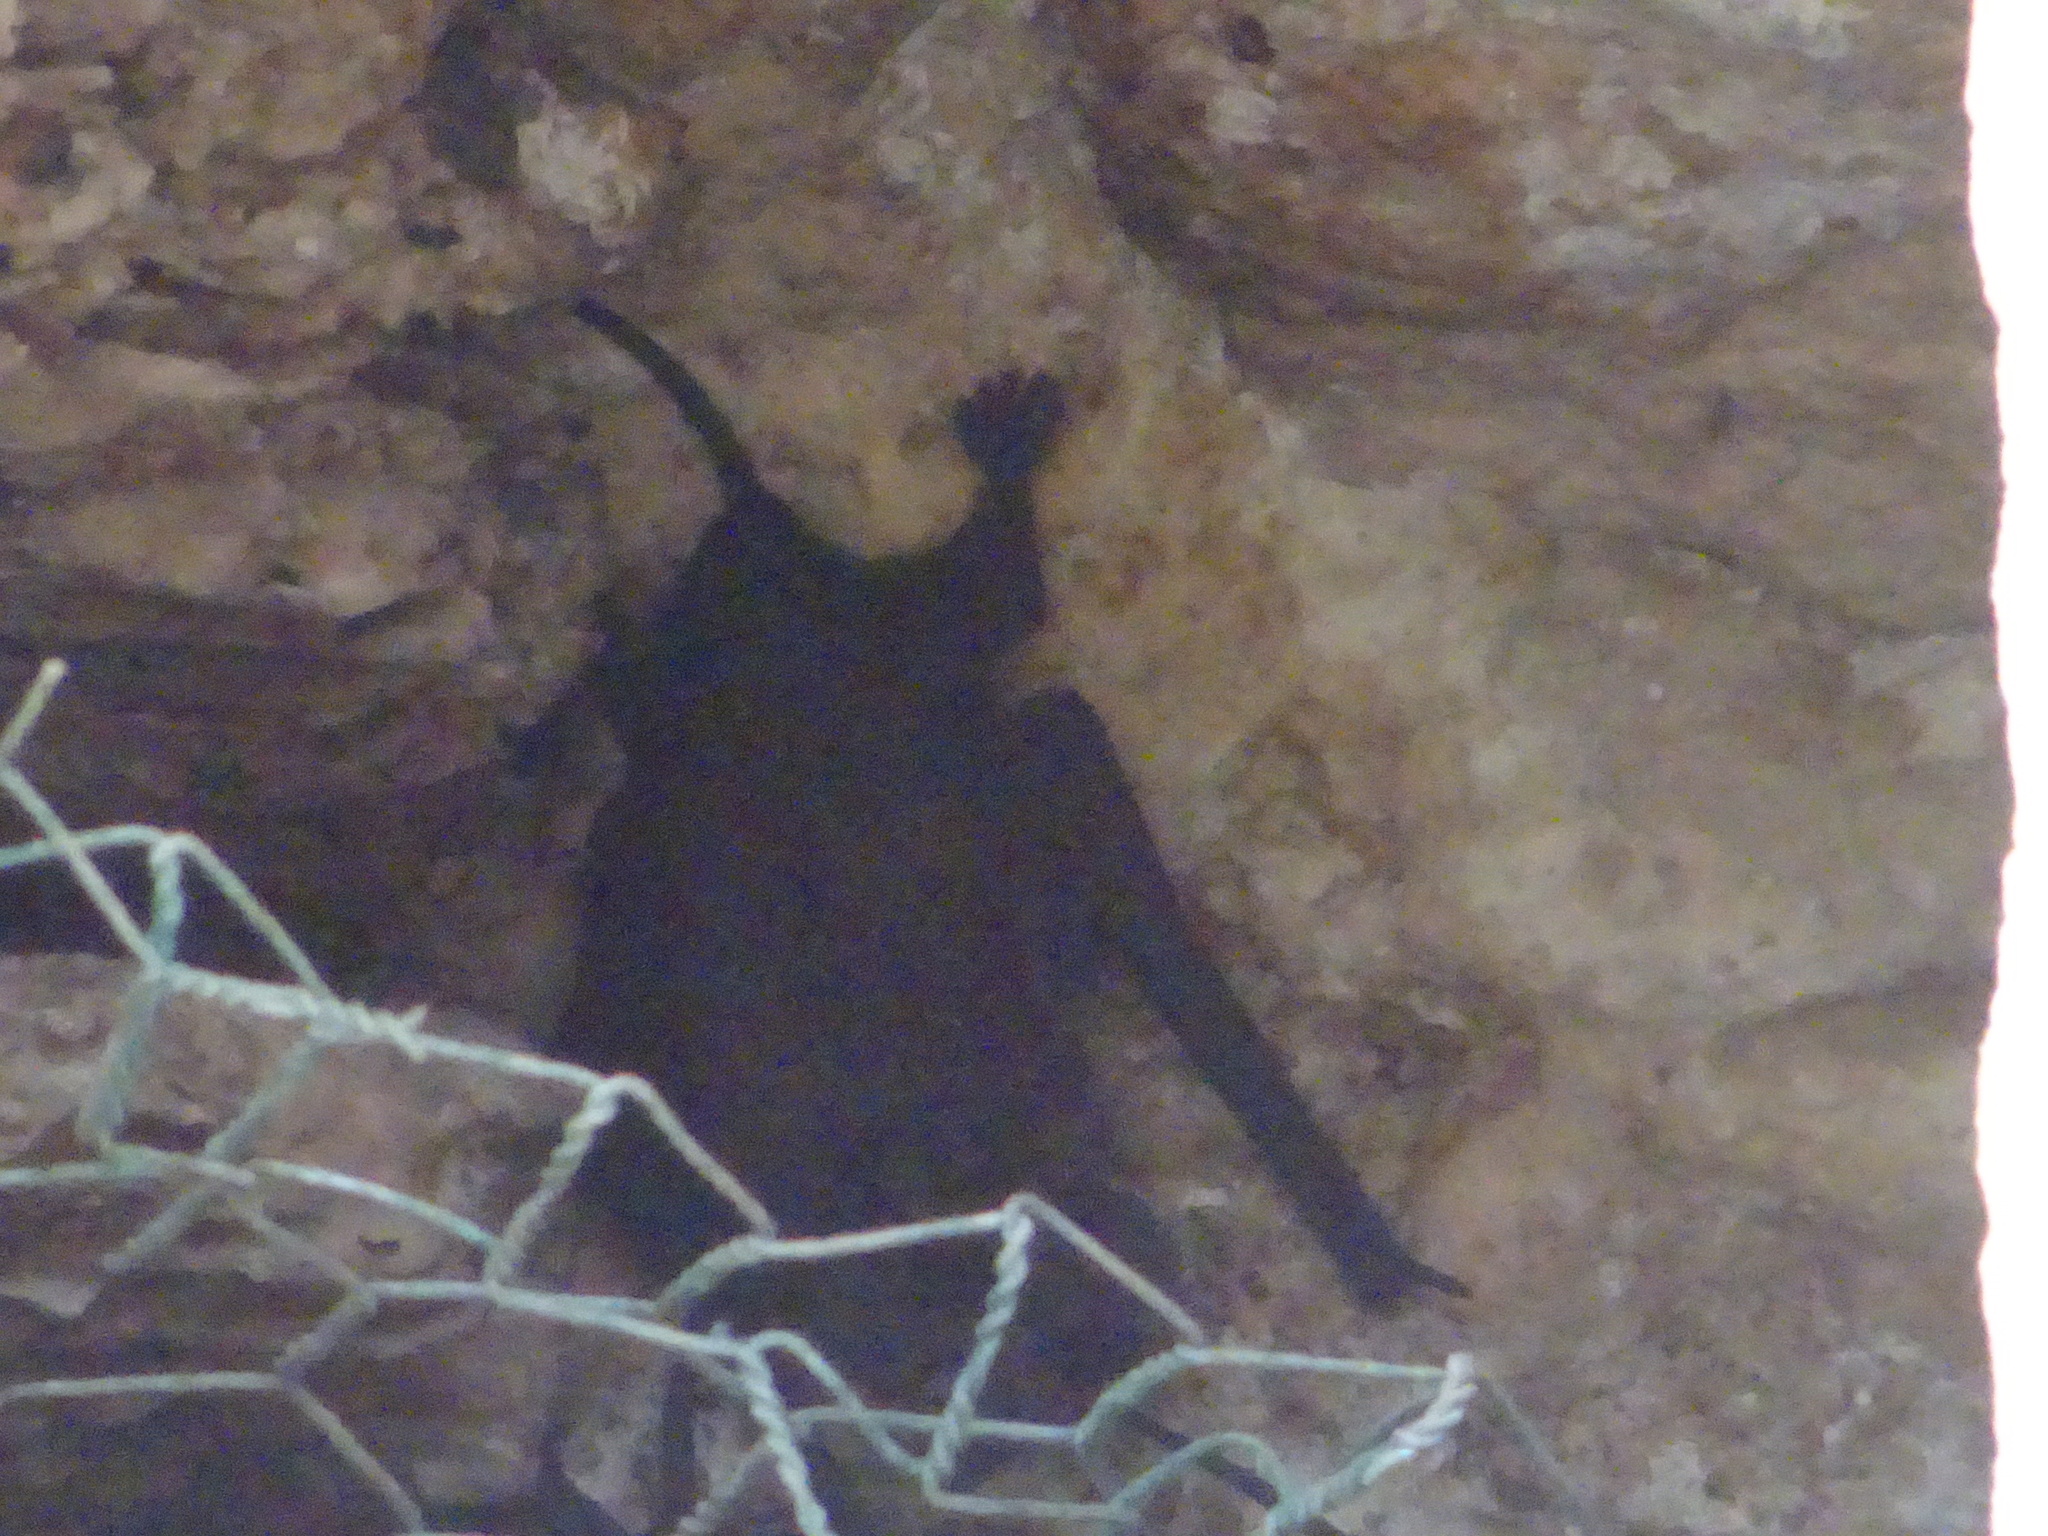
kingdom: Animalia
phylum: Chordata
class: Mammalia
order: Chiroptera
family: Molossidae
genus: Nyctinomops
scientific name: Nyctinomops laticaudatus
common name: Broad-eared free-tailed bat
